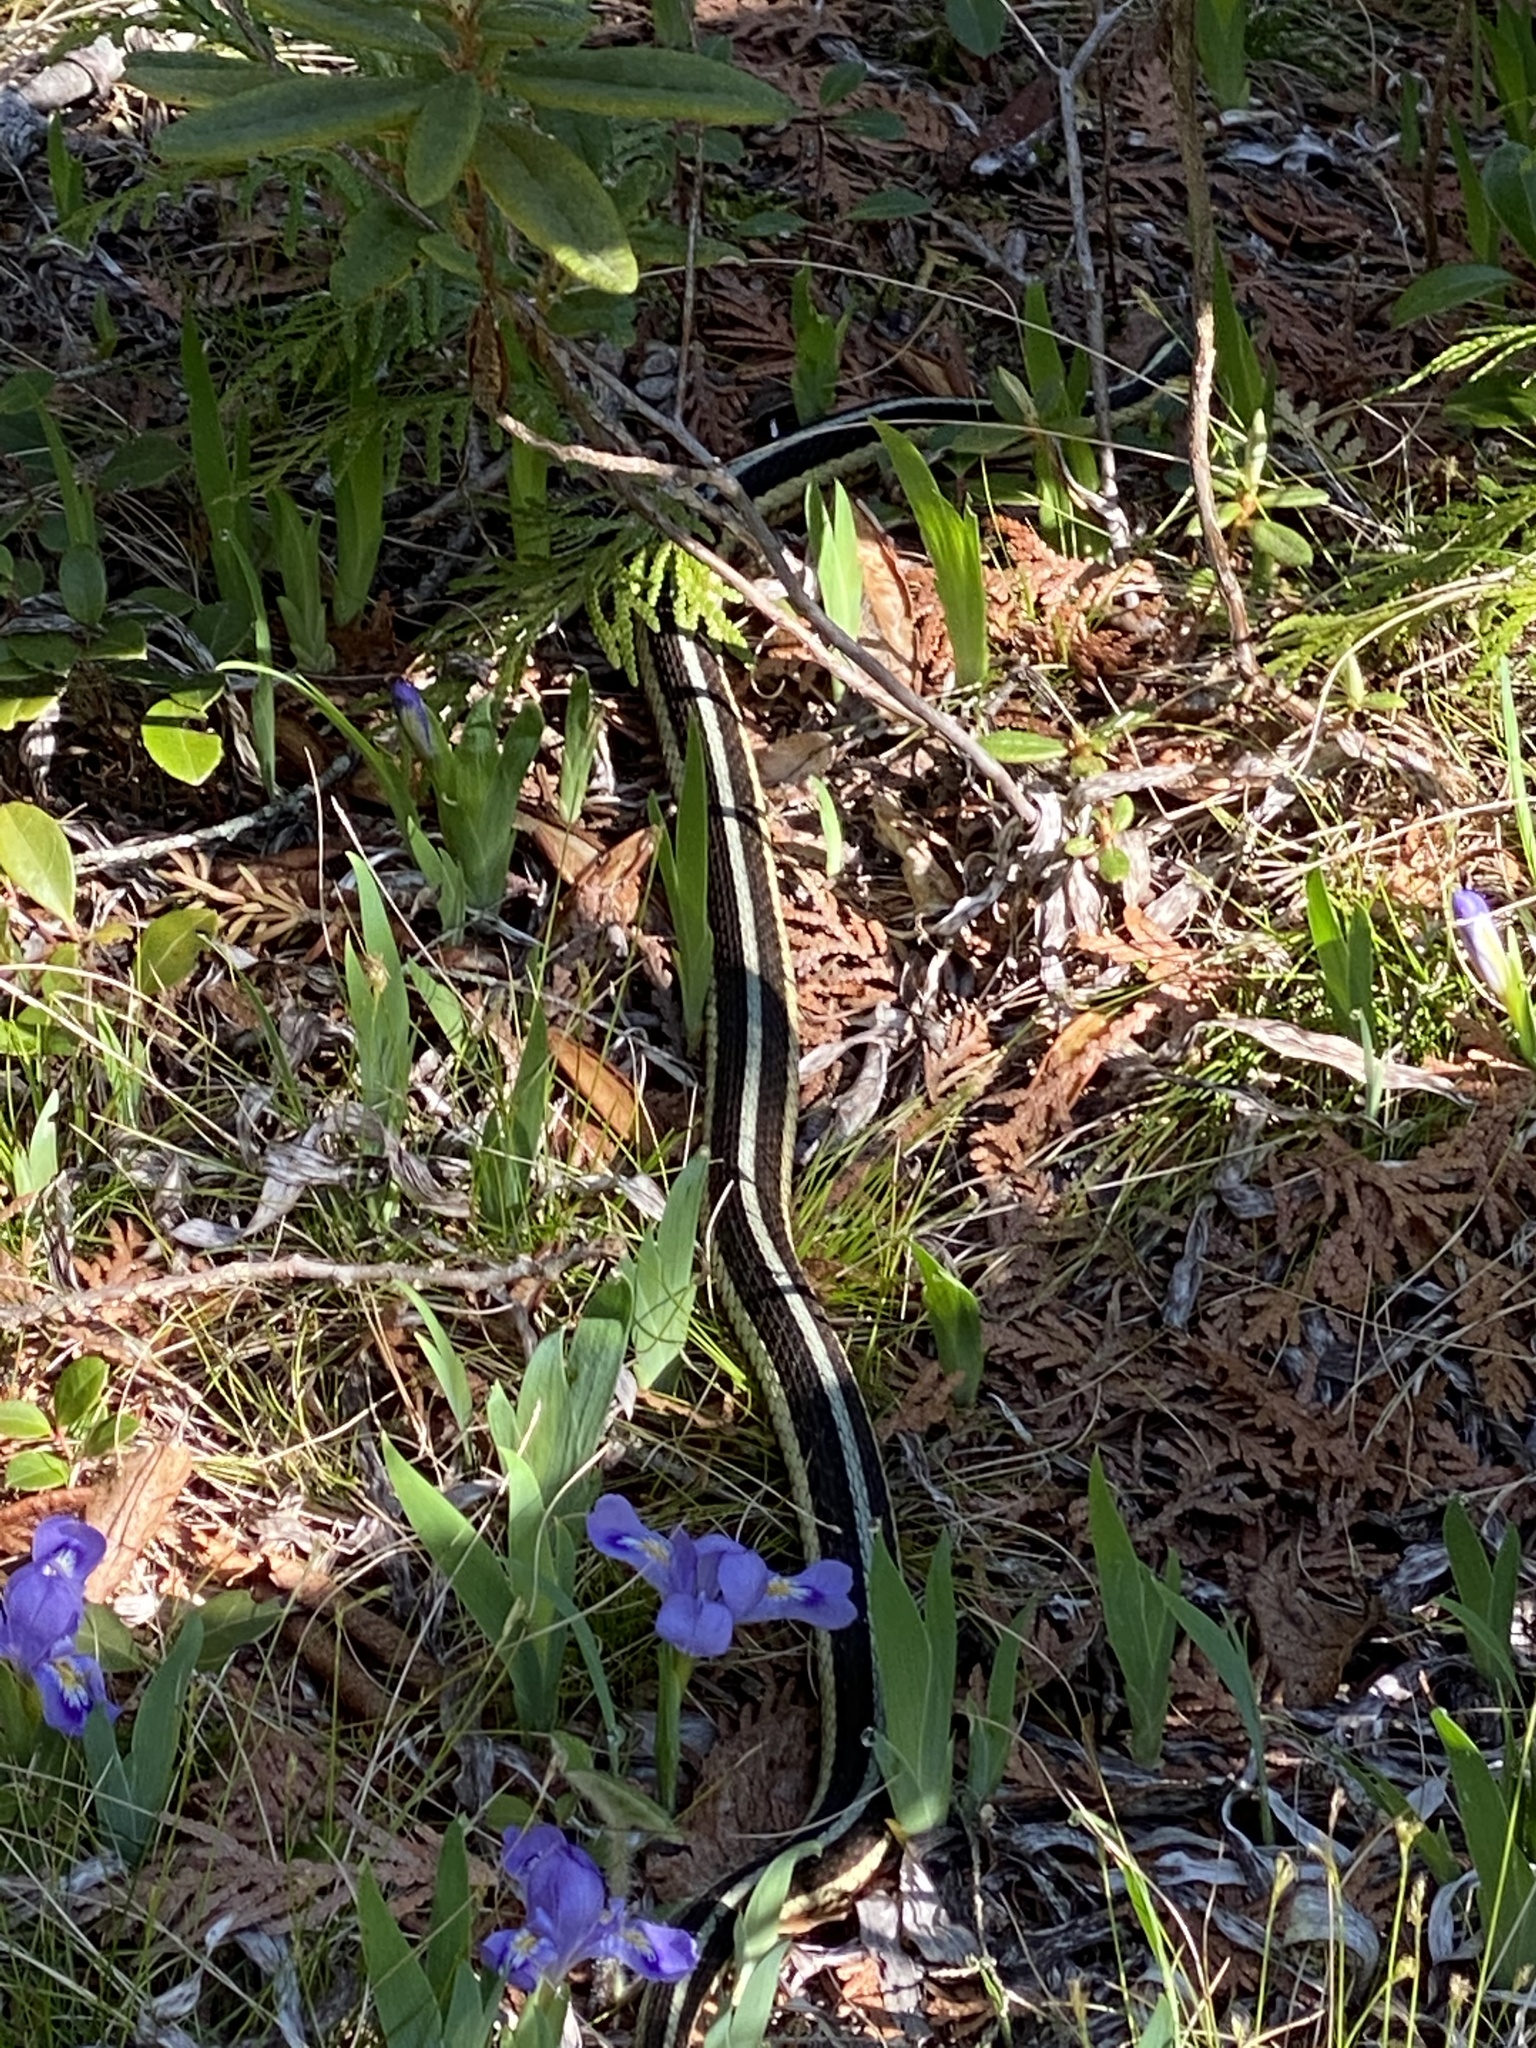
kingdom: Animalia
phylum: Chordata
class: Squamata
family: Colubridae
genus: Thamnophis
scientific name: Thamnophis sirtalis
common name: Common garter snake
